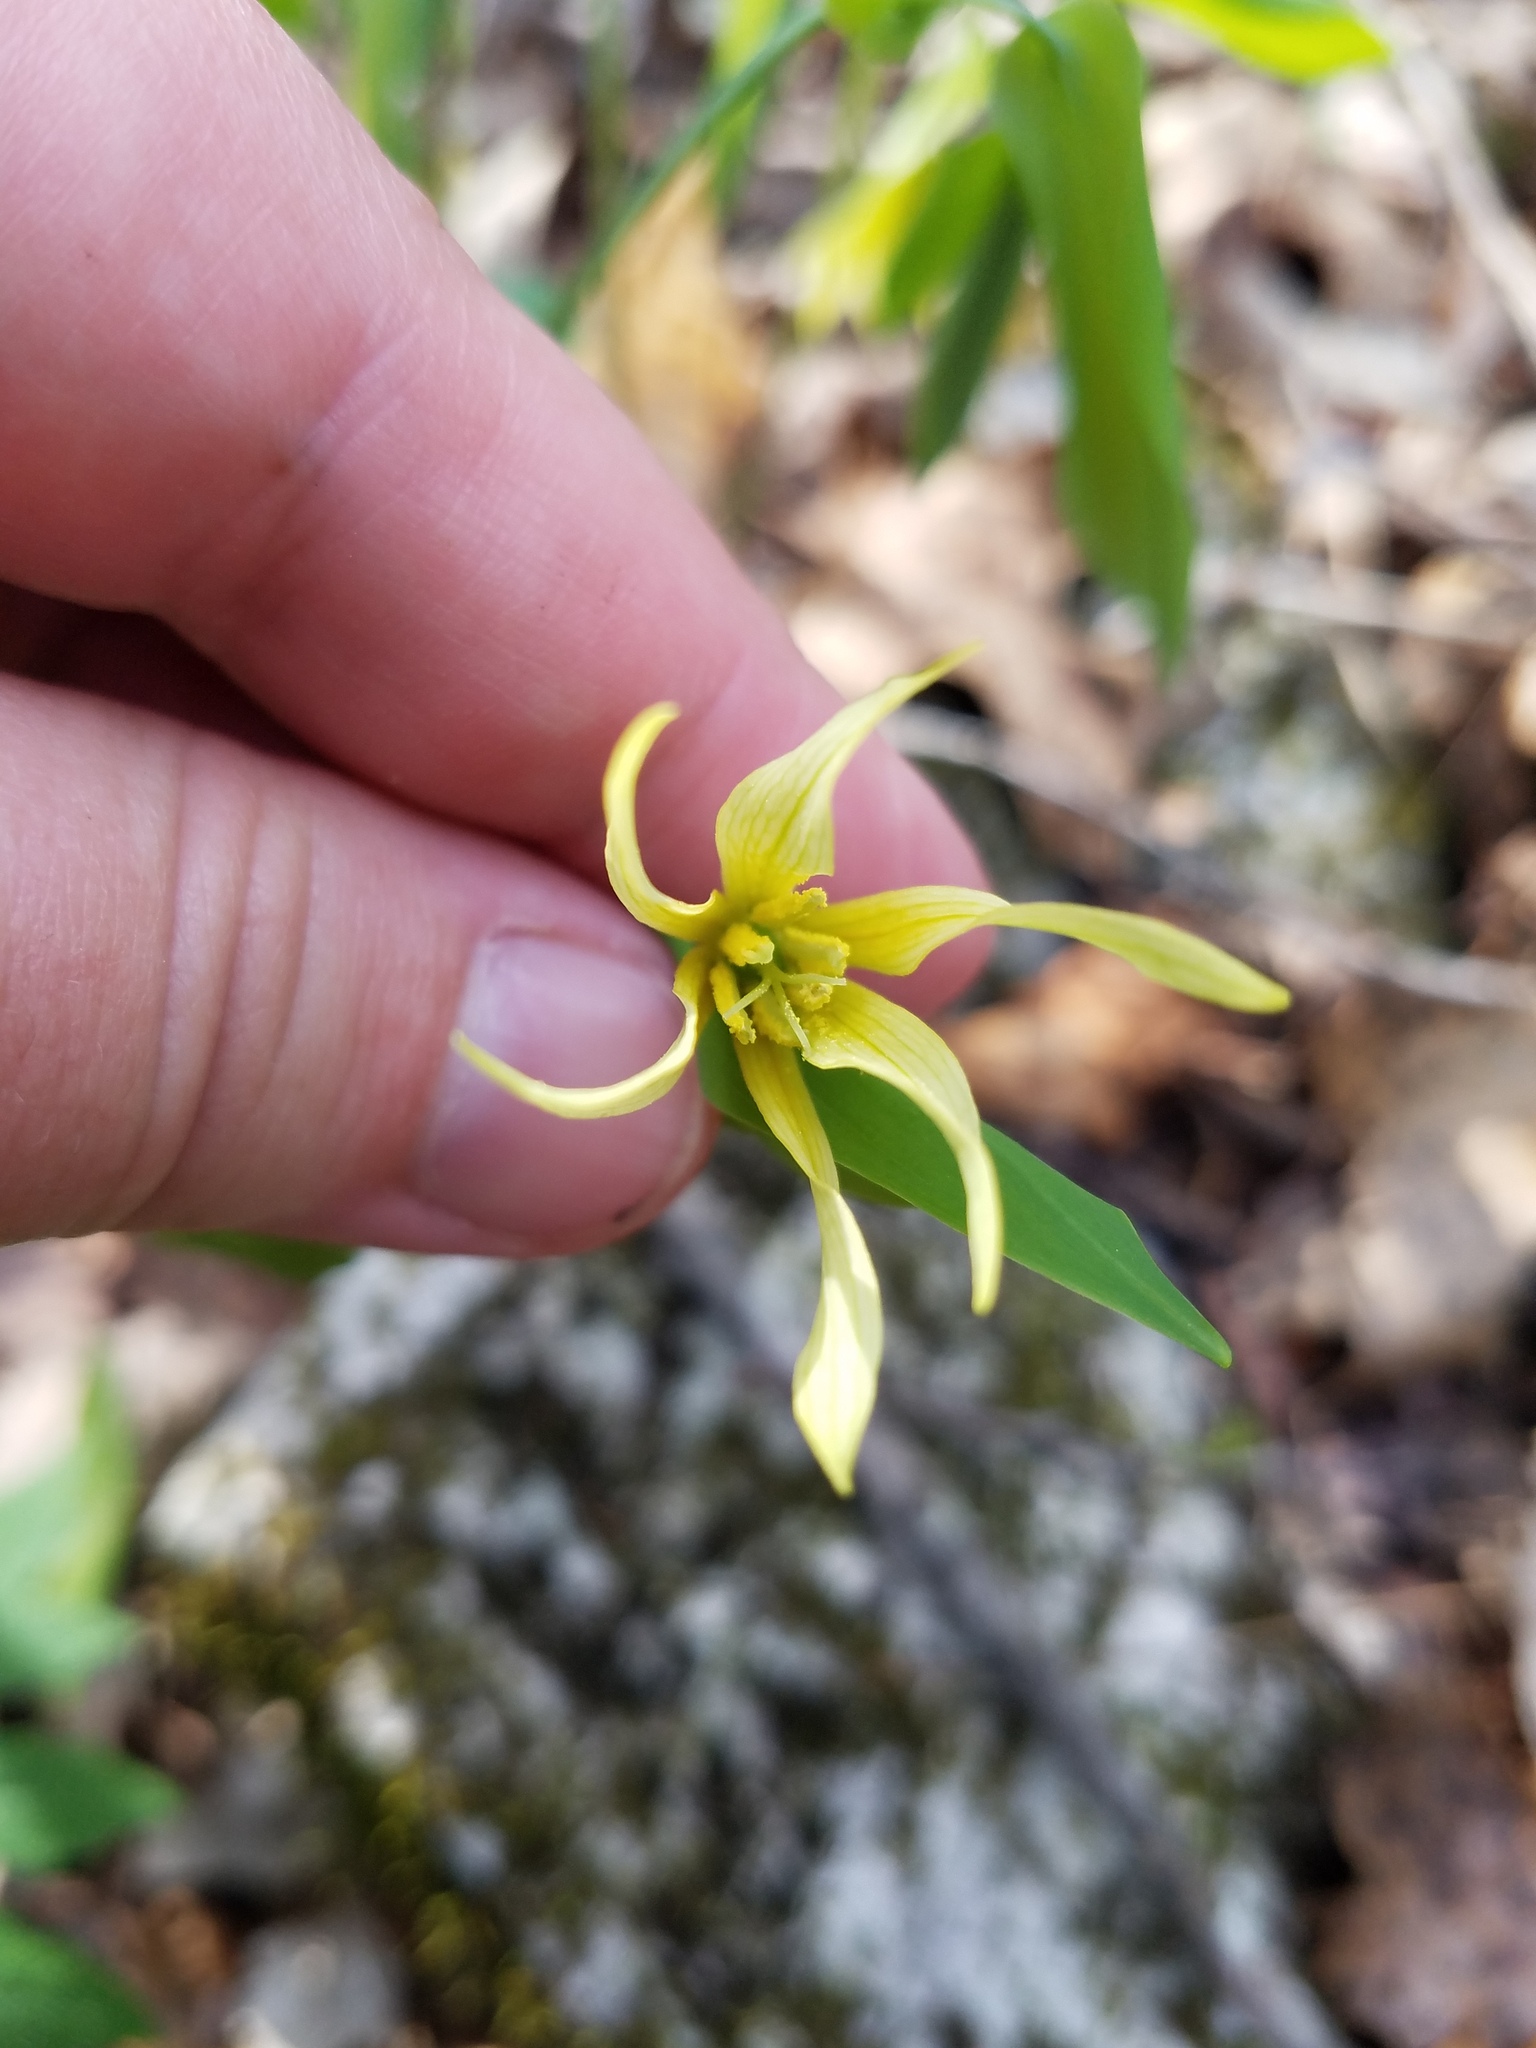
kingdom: Plantae
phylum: Tracheophyta
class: Liliopsida
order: Liliales
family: Colchicaceae
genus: Uvularia
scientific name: Uvularia grandiflora
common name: Bellwort
